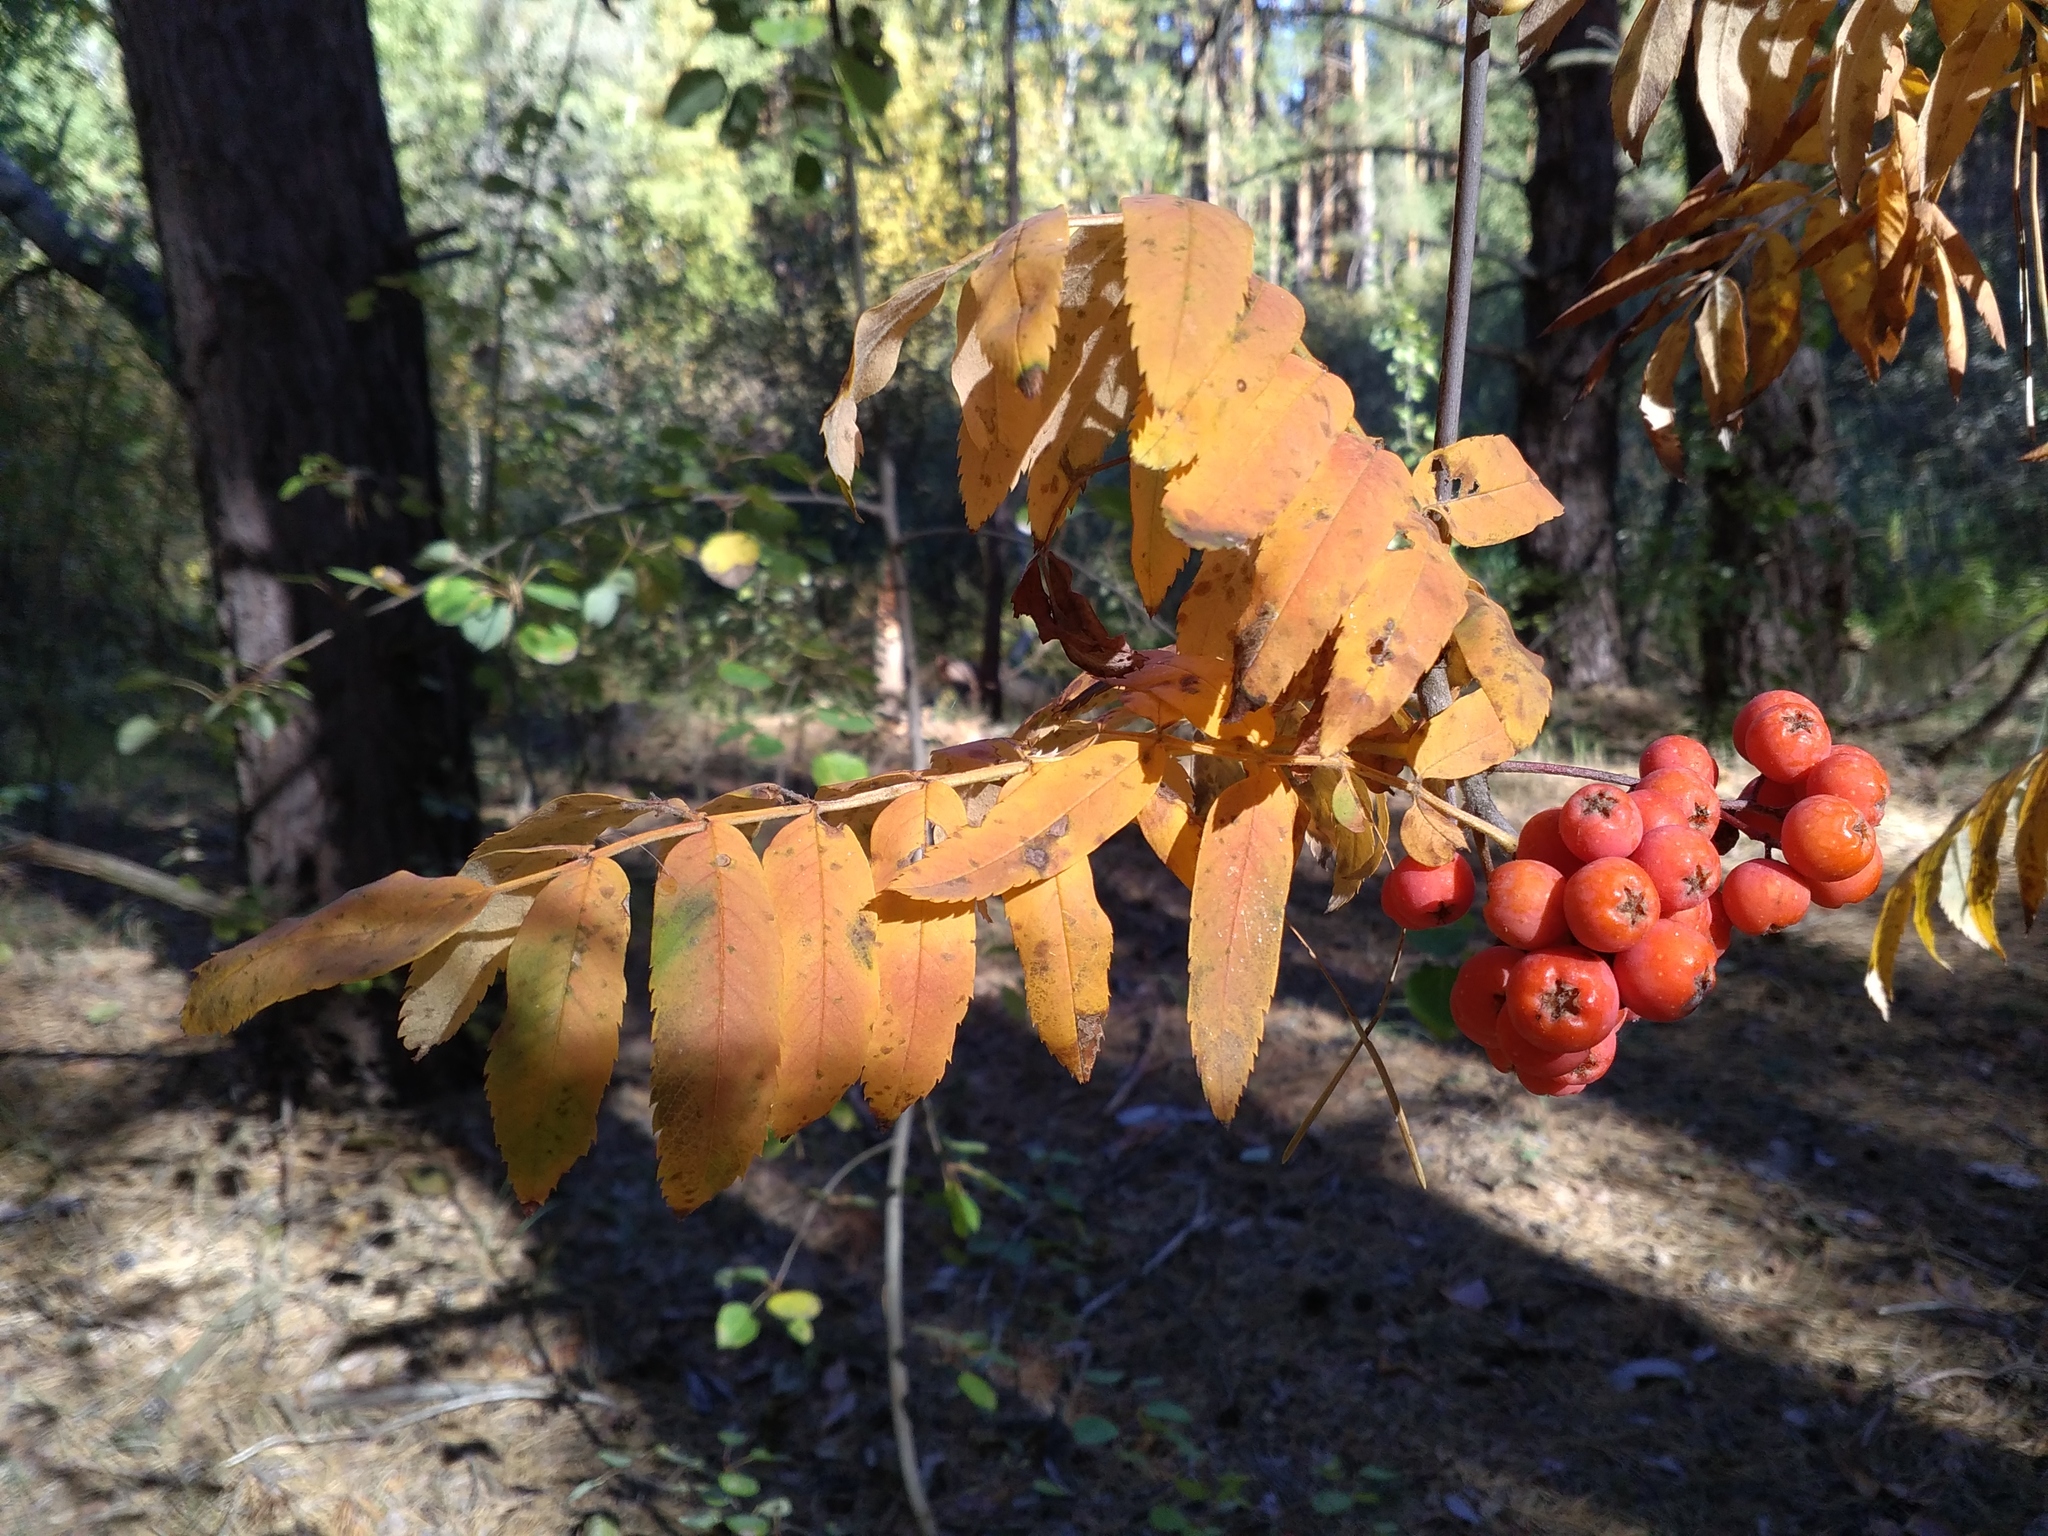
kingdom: Plantae
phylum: Tracheophyta
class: Magnoliopsida
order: Rosales
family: Rosaceae
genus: Sorbus
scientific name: Sorbus aucuparia
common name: Rowan
